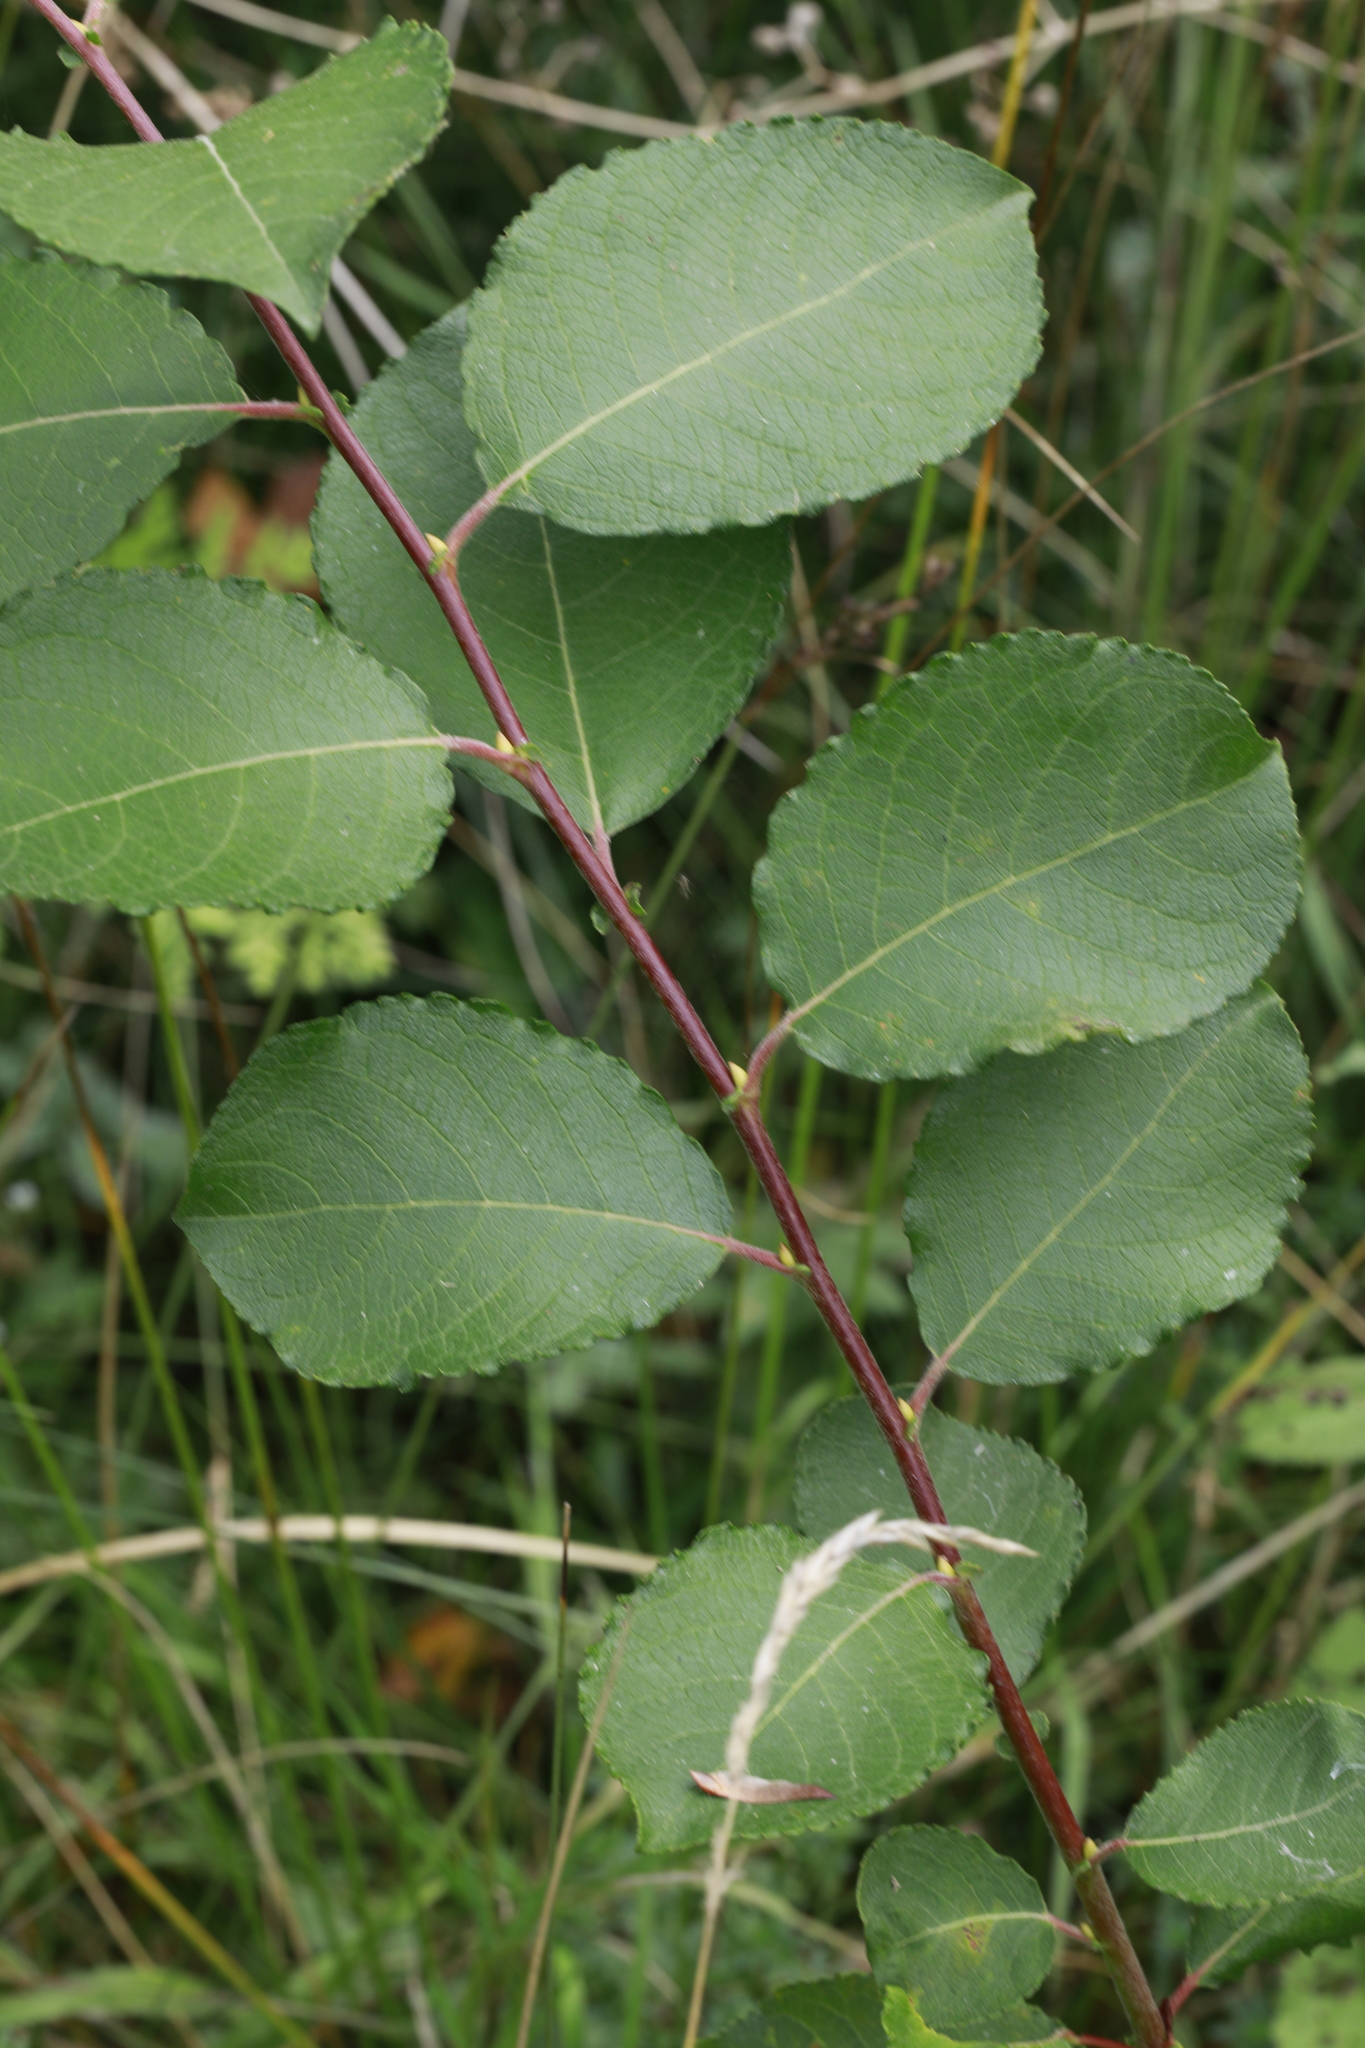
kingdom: Plantae
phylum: Tracheophyta
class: Magnoliopsida
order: Malpighiales
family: Salicaceae
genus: Salix
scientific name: Salix caprea
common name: Goat willow
